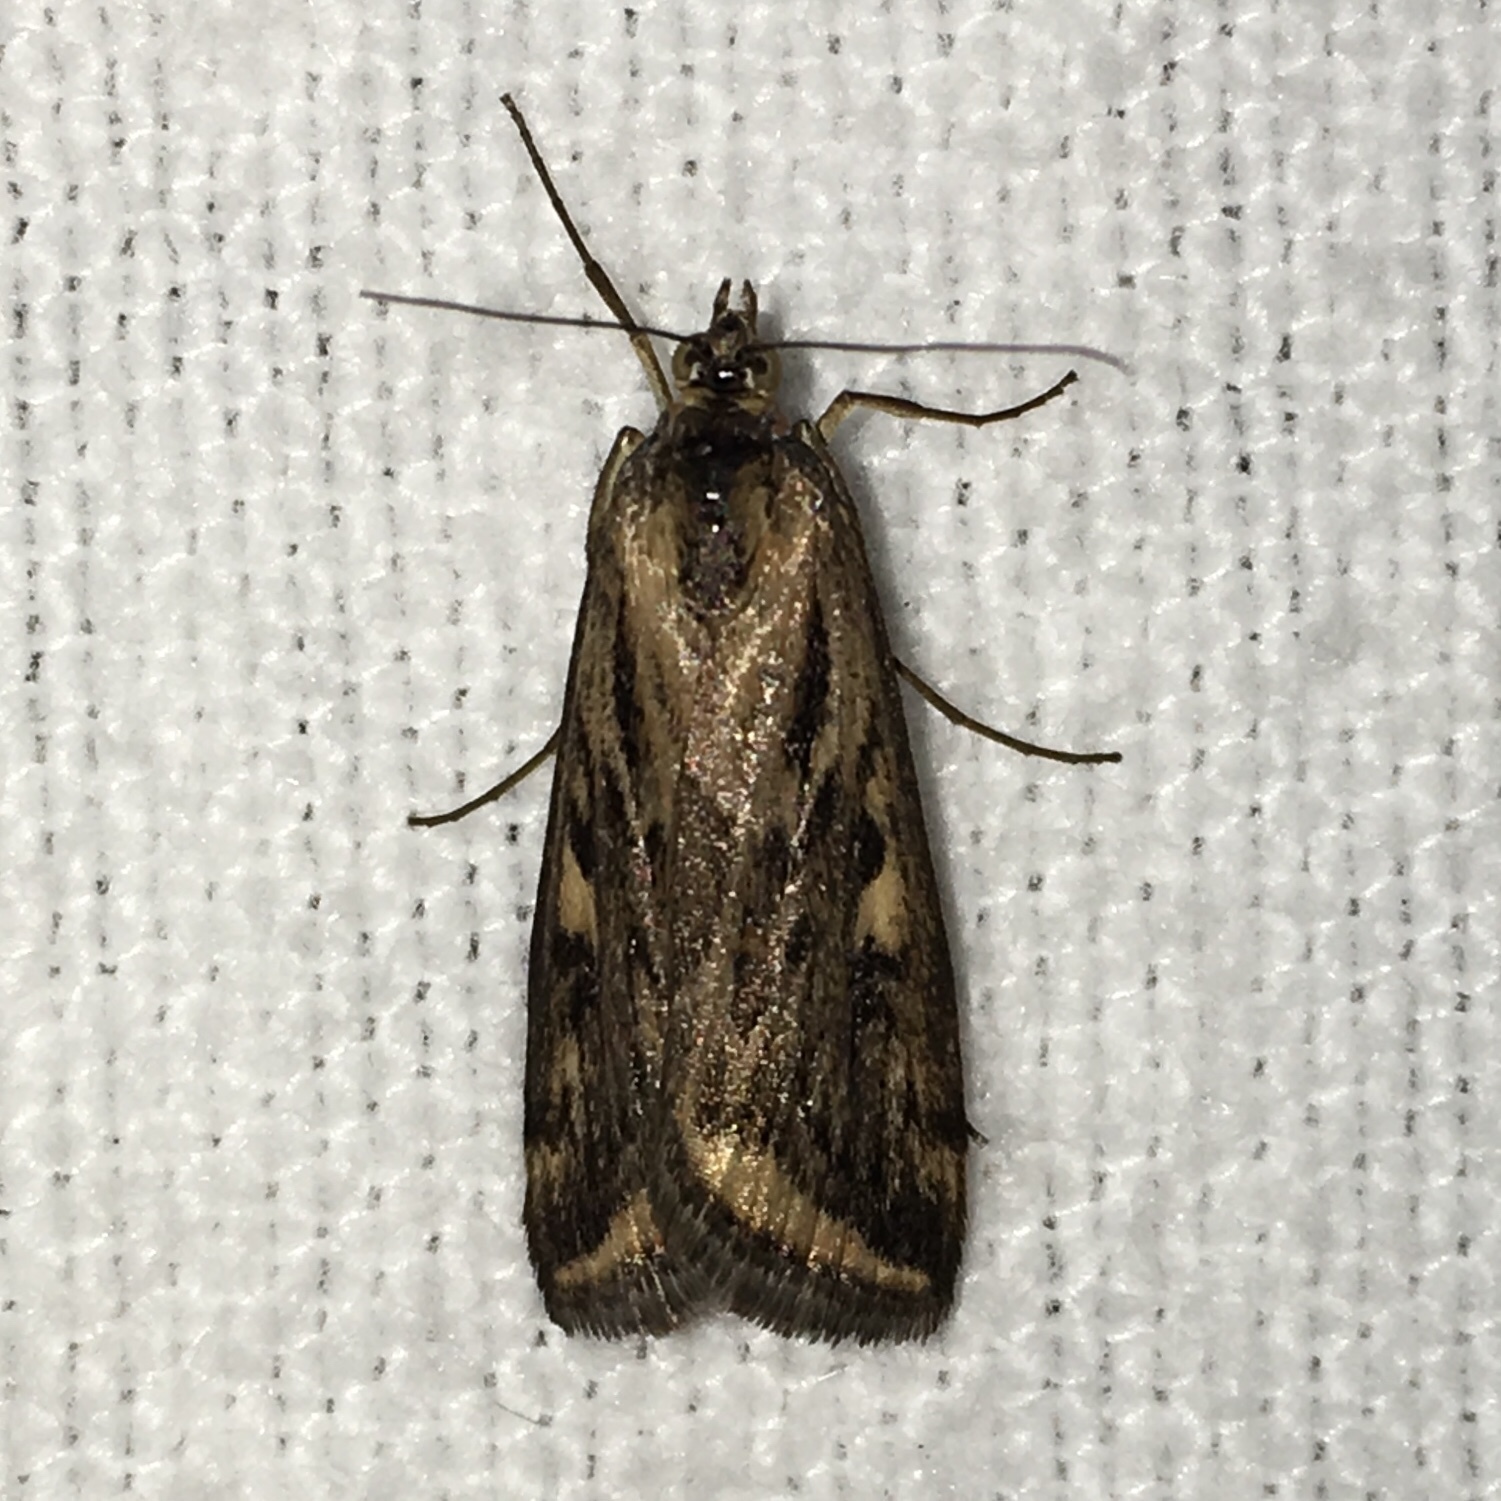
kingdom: Animalia
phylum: Arthropoda
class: Insecta
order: Lepidoptera
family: Crambidae
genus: Loxostege
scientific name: Loxostege cereralis
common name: Alfalfa webworm moth
